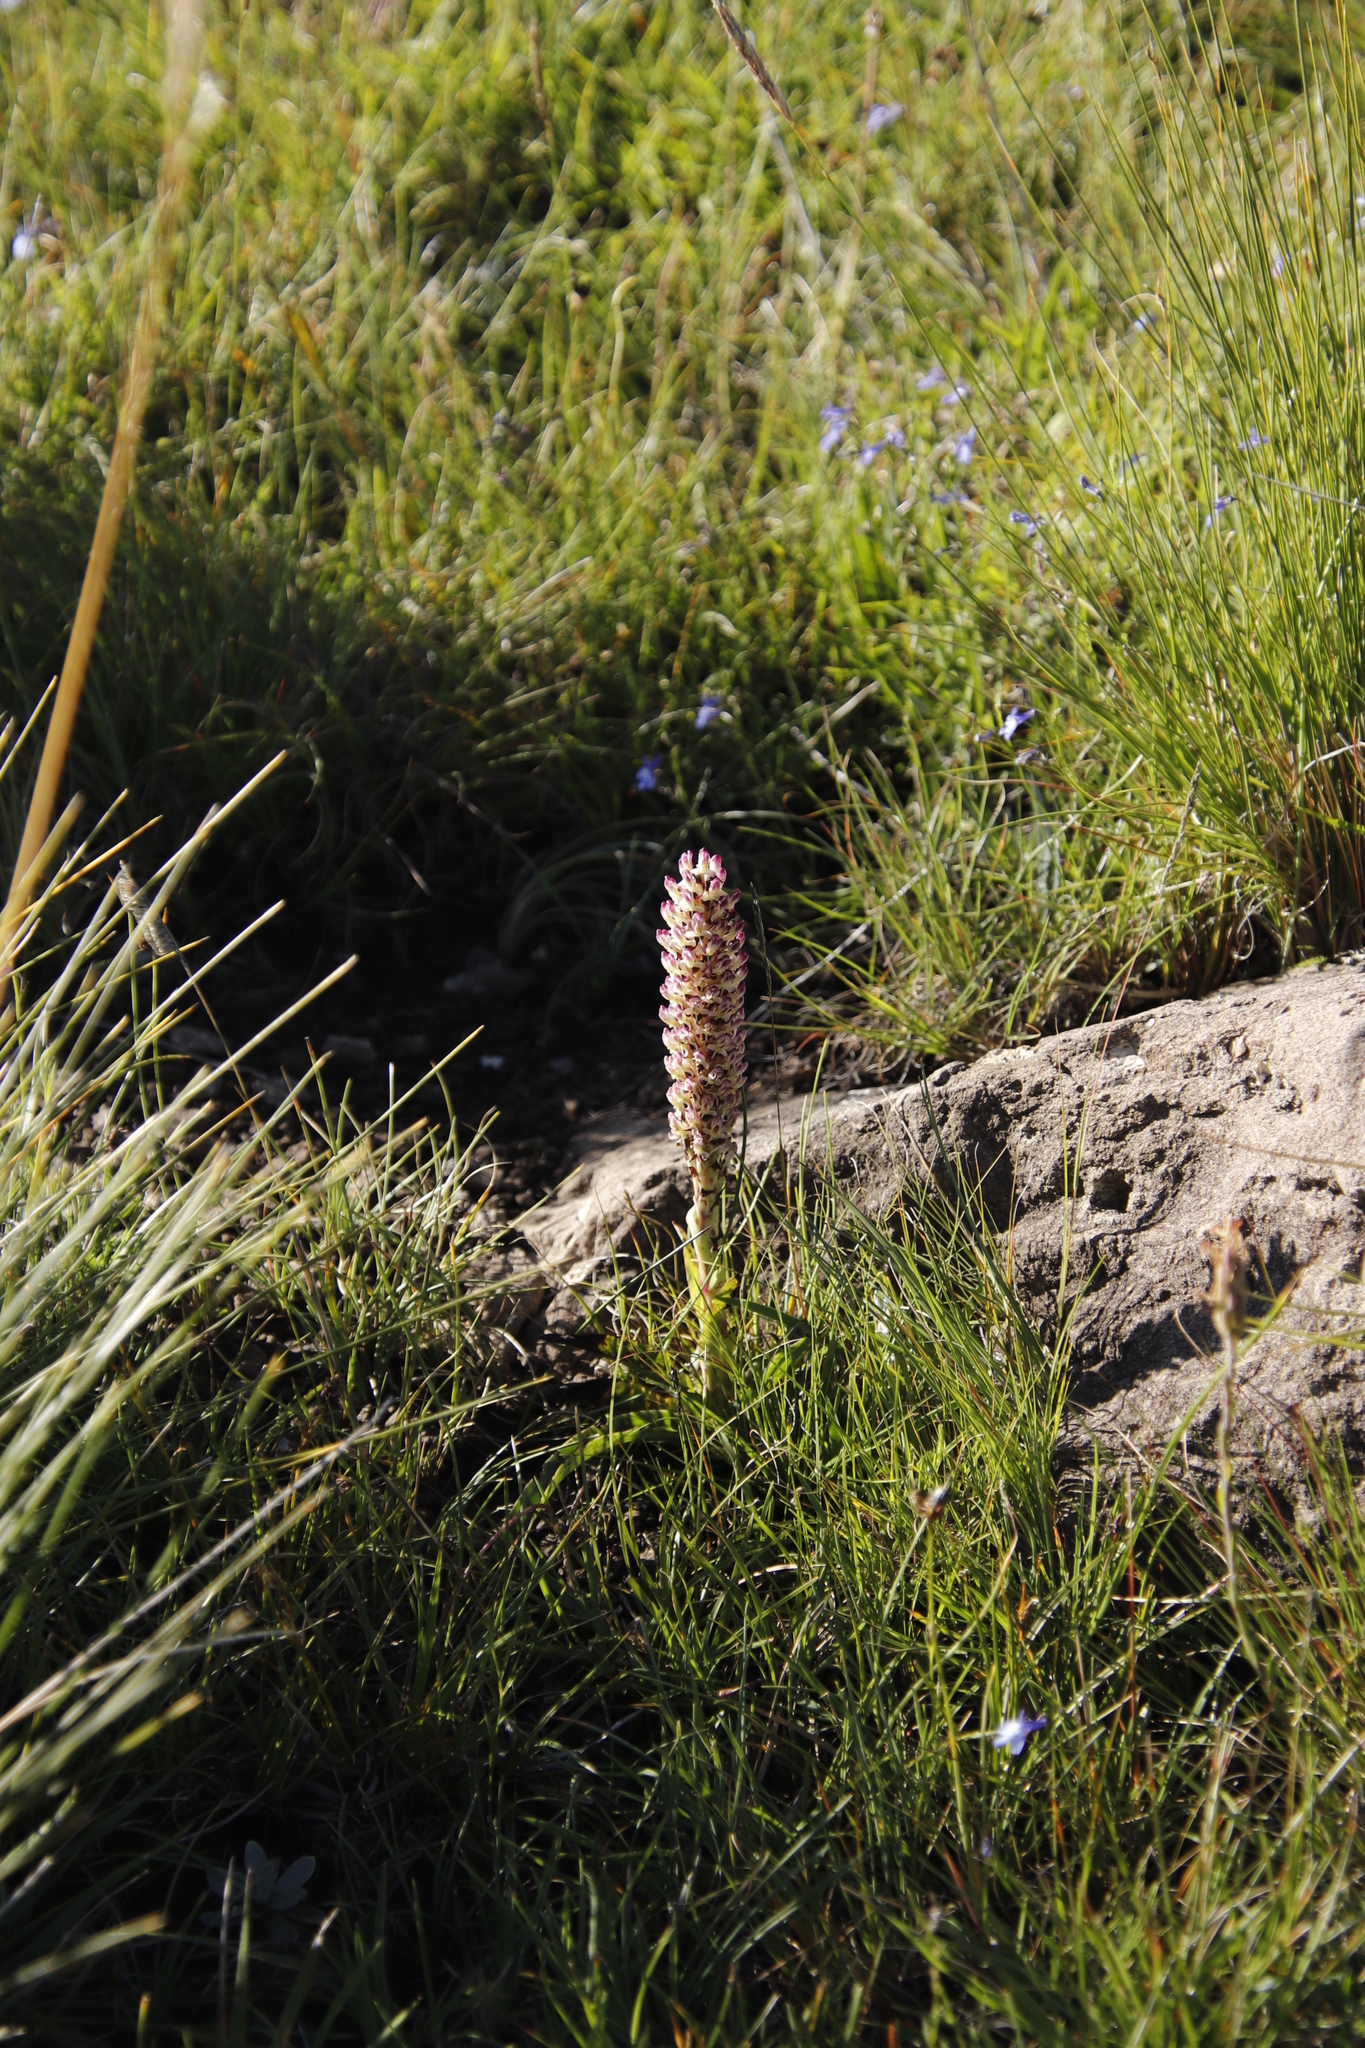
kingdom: Plantae
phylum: Tracheophyta
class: Liliopsida
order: Asparagales
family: Orchidaceae
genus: Disa
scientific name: Disa fragrans
